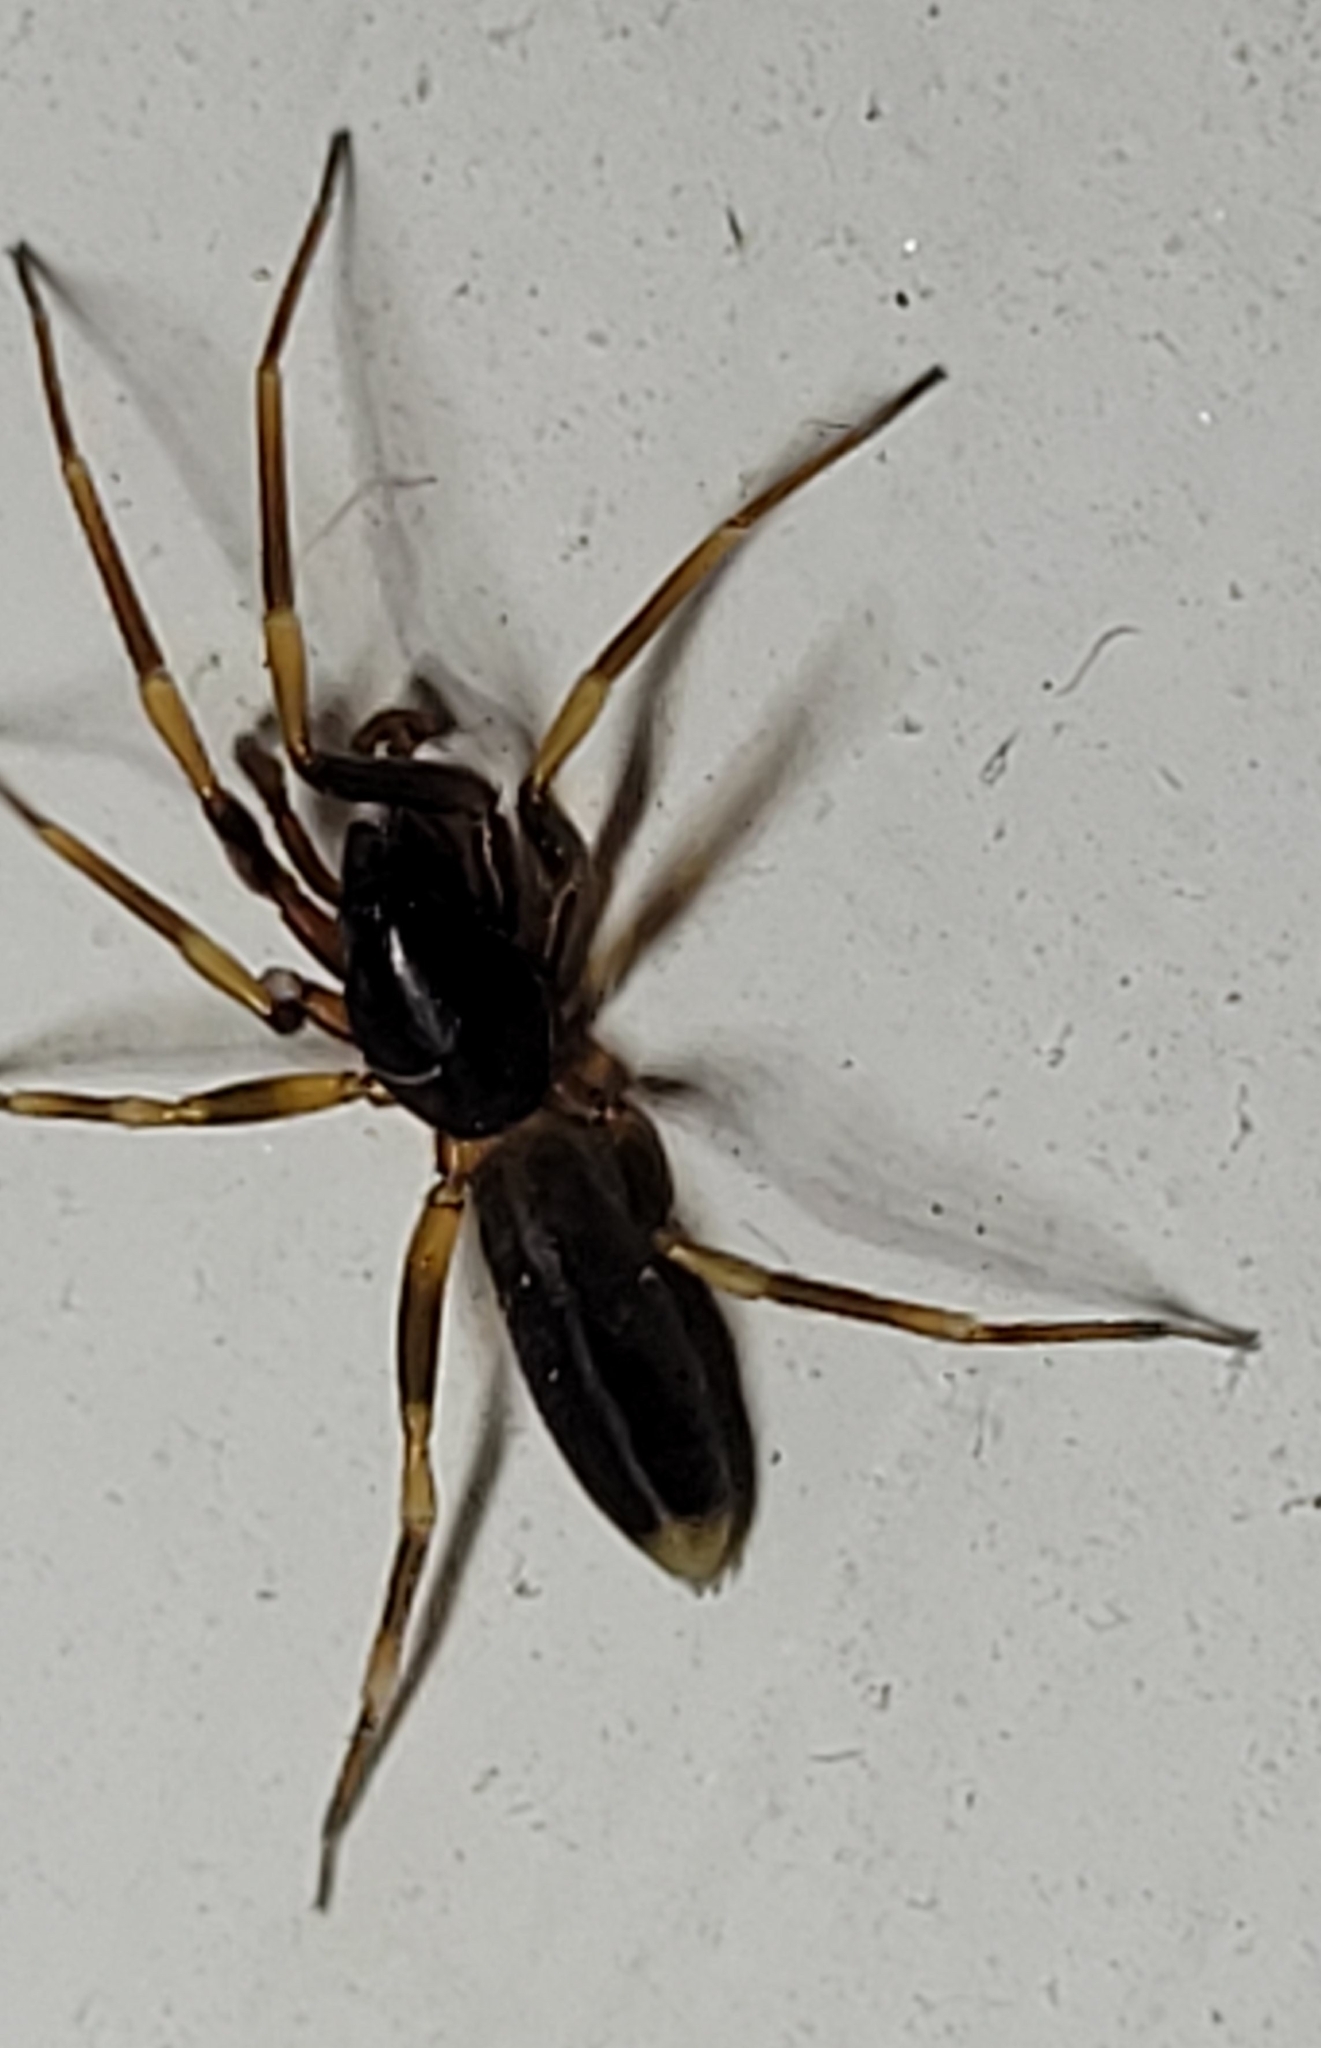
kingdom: Animalia
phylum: Arthropoda
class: Arachnida
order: Araneae
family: Dysderidae
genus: Harpactea
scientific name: Harpactea hombergi
